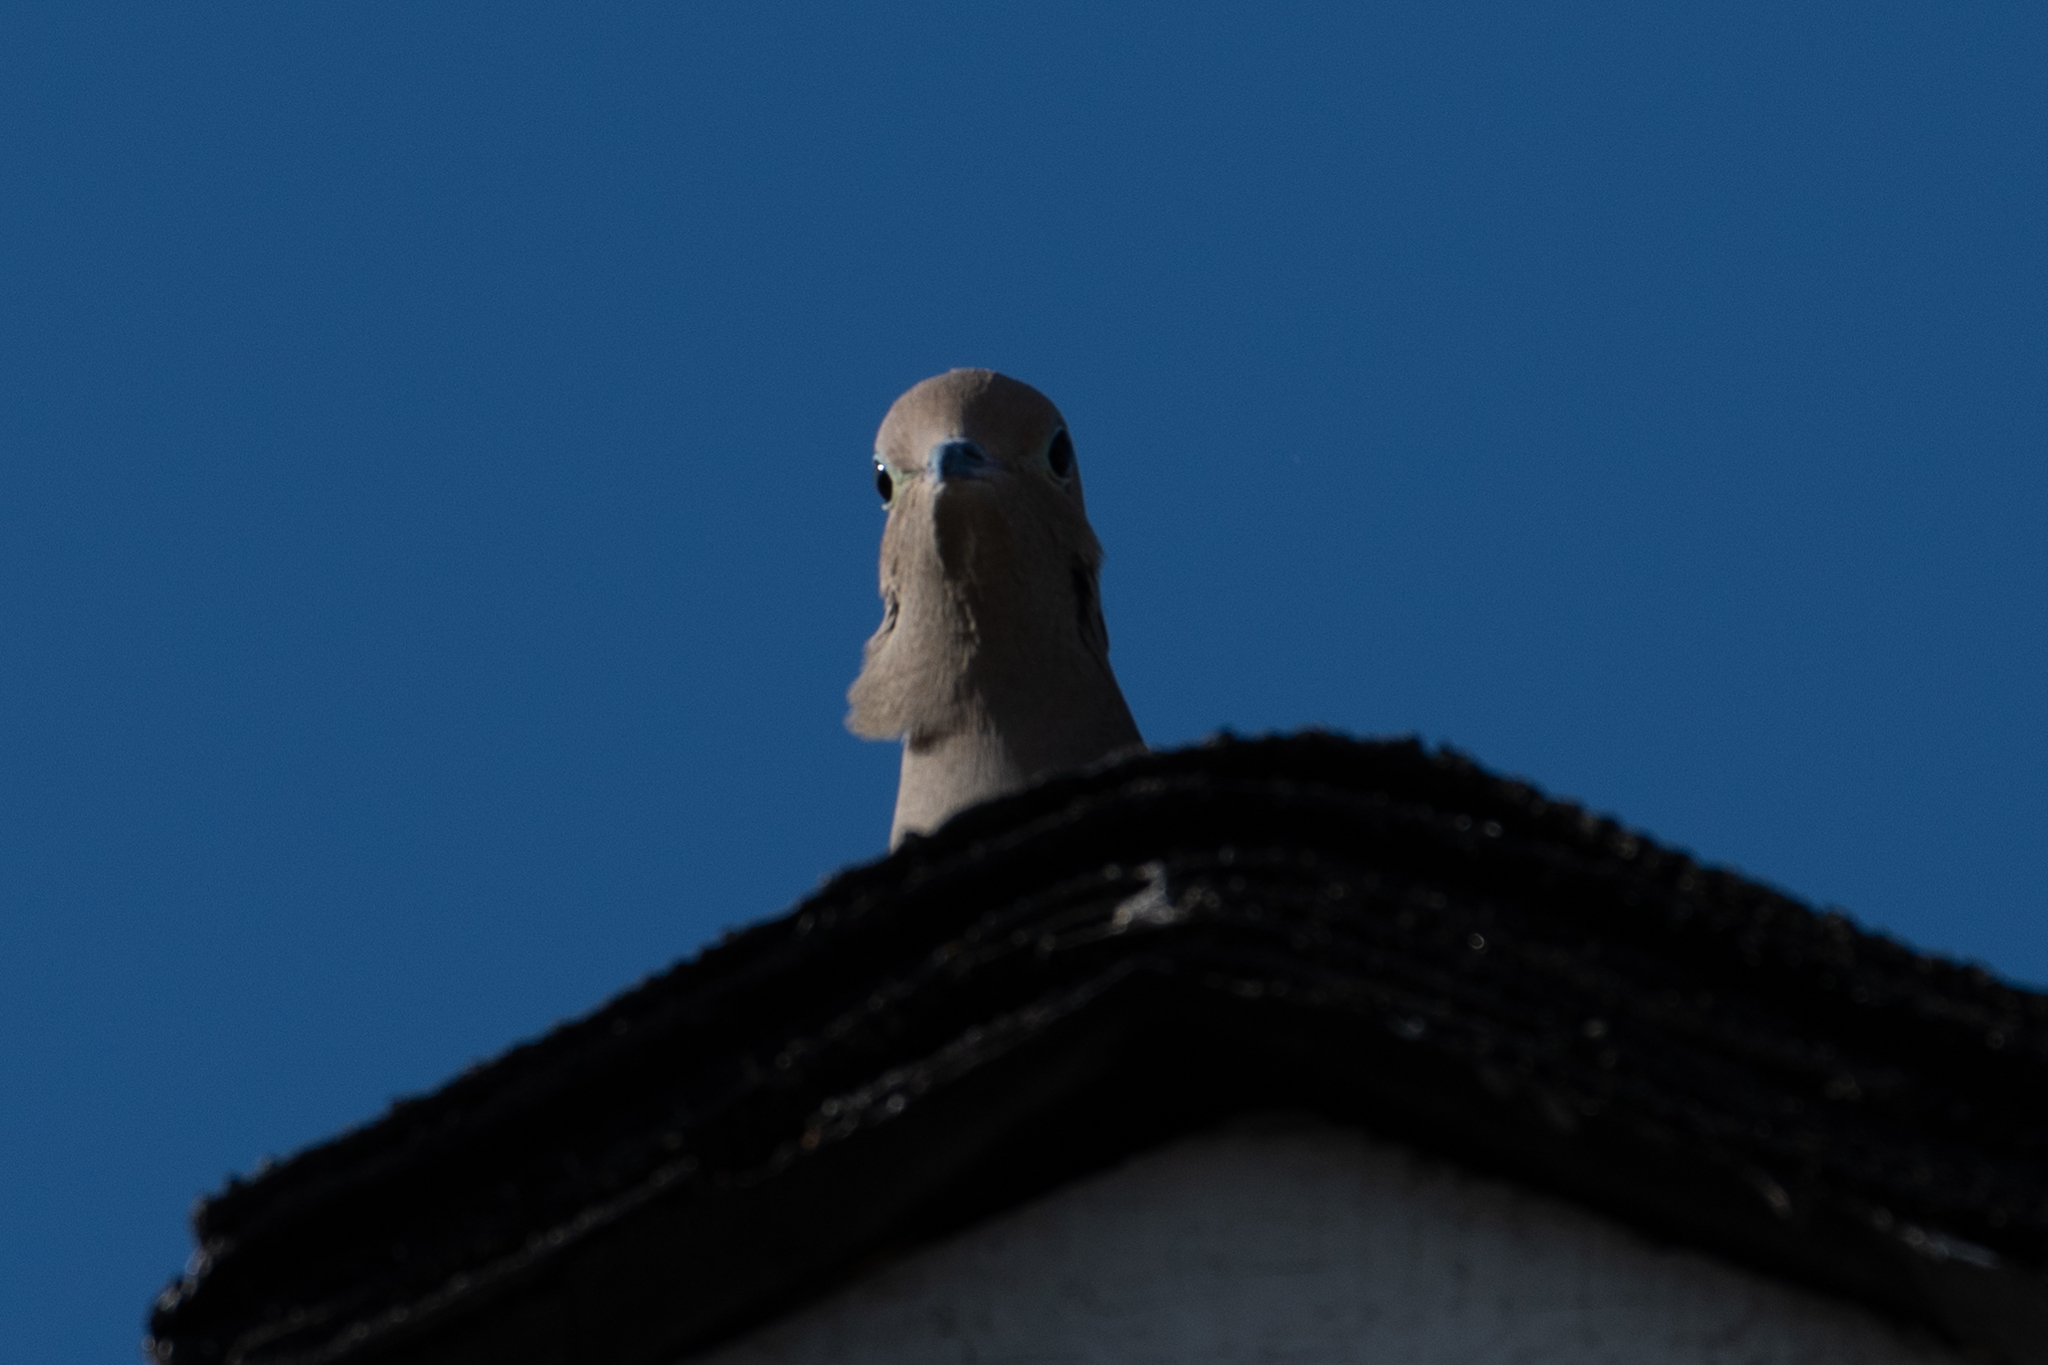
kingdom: Animalia
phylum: Chordata
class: Aves
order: Columbiformes
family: Columbidae
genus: Zenaida
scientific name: Zenaida macroura
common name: Mourning dove
